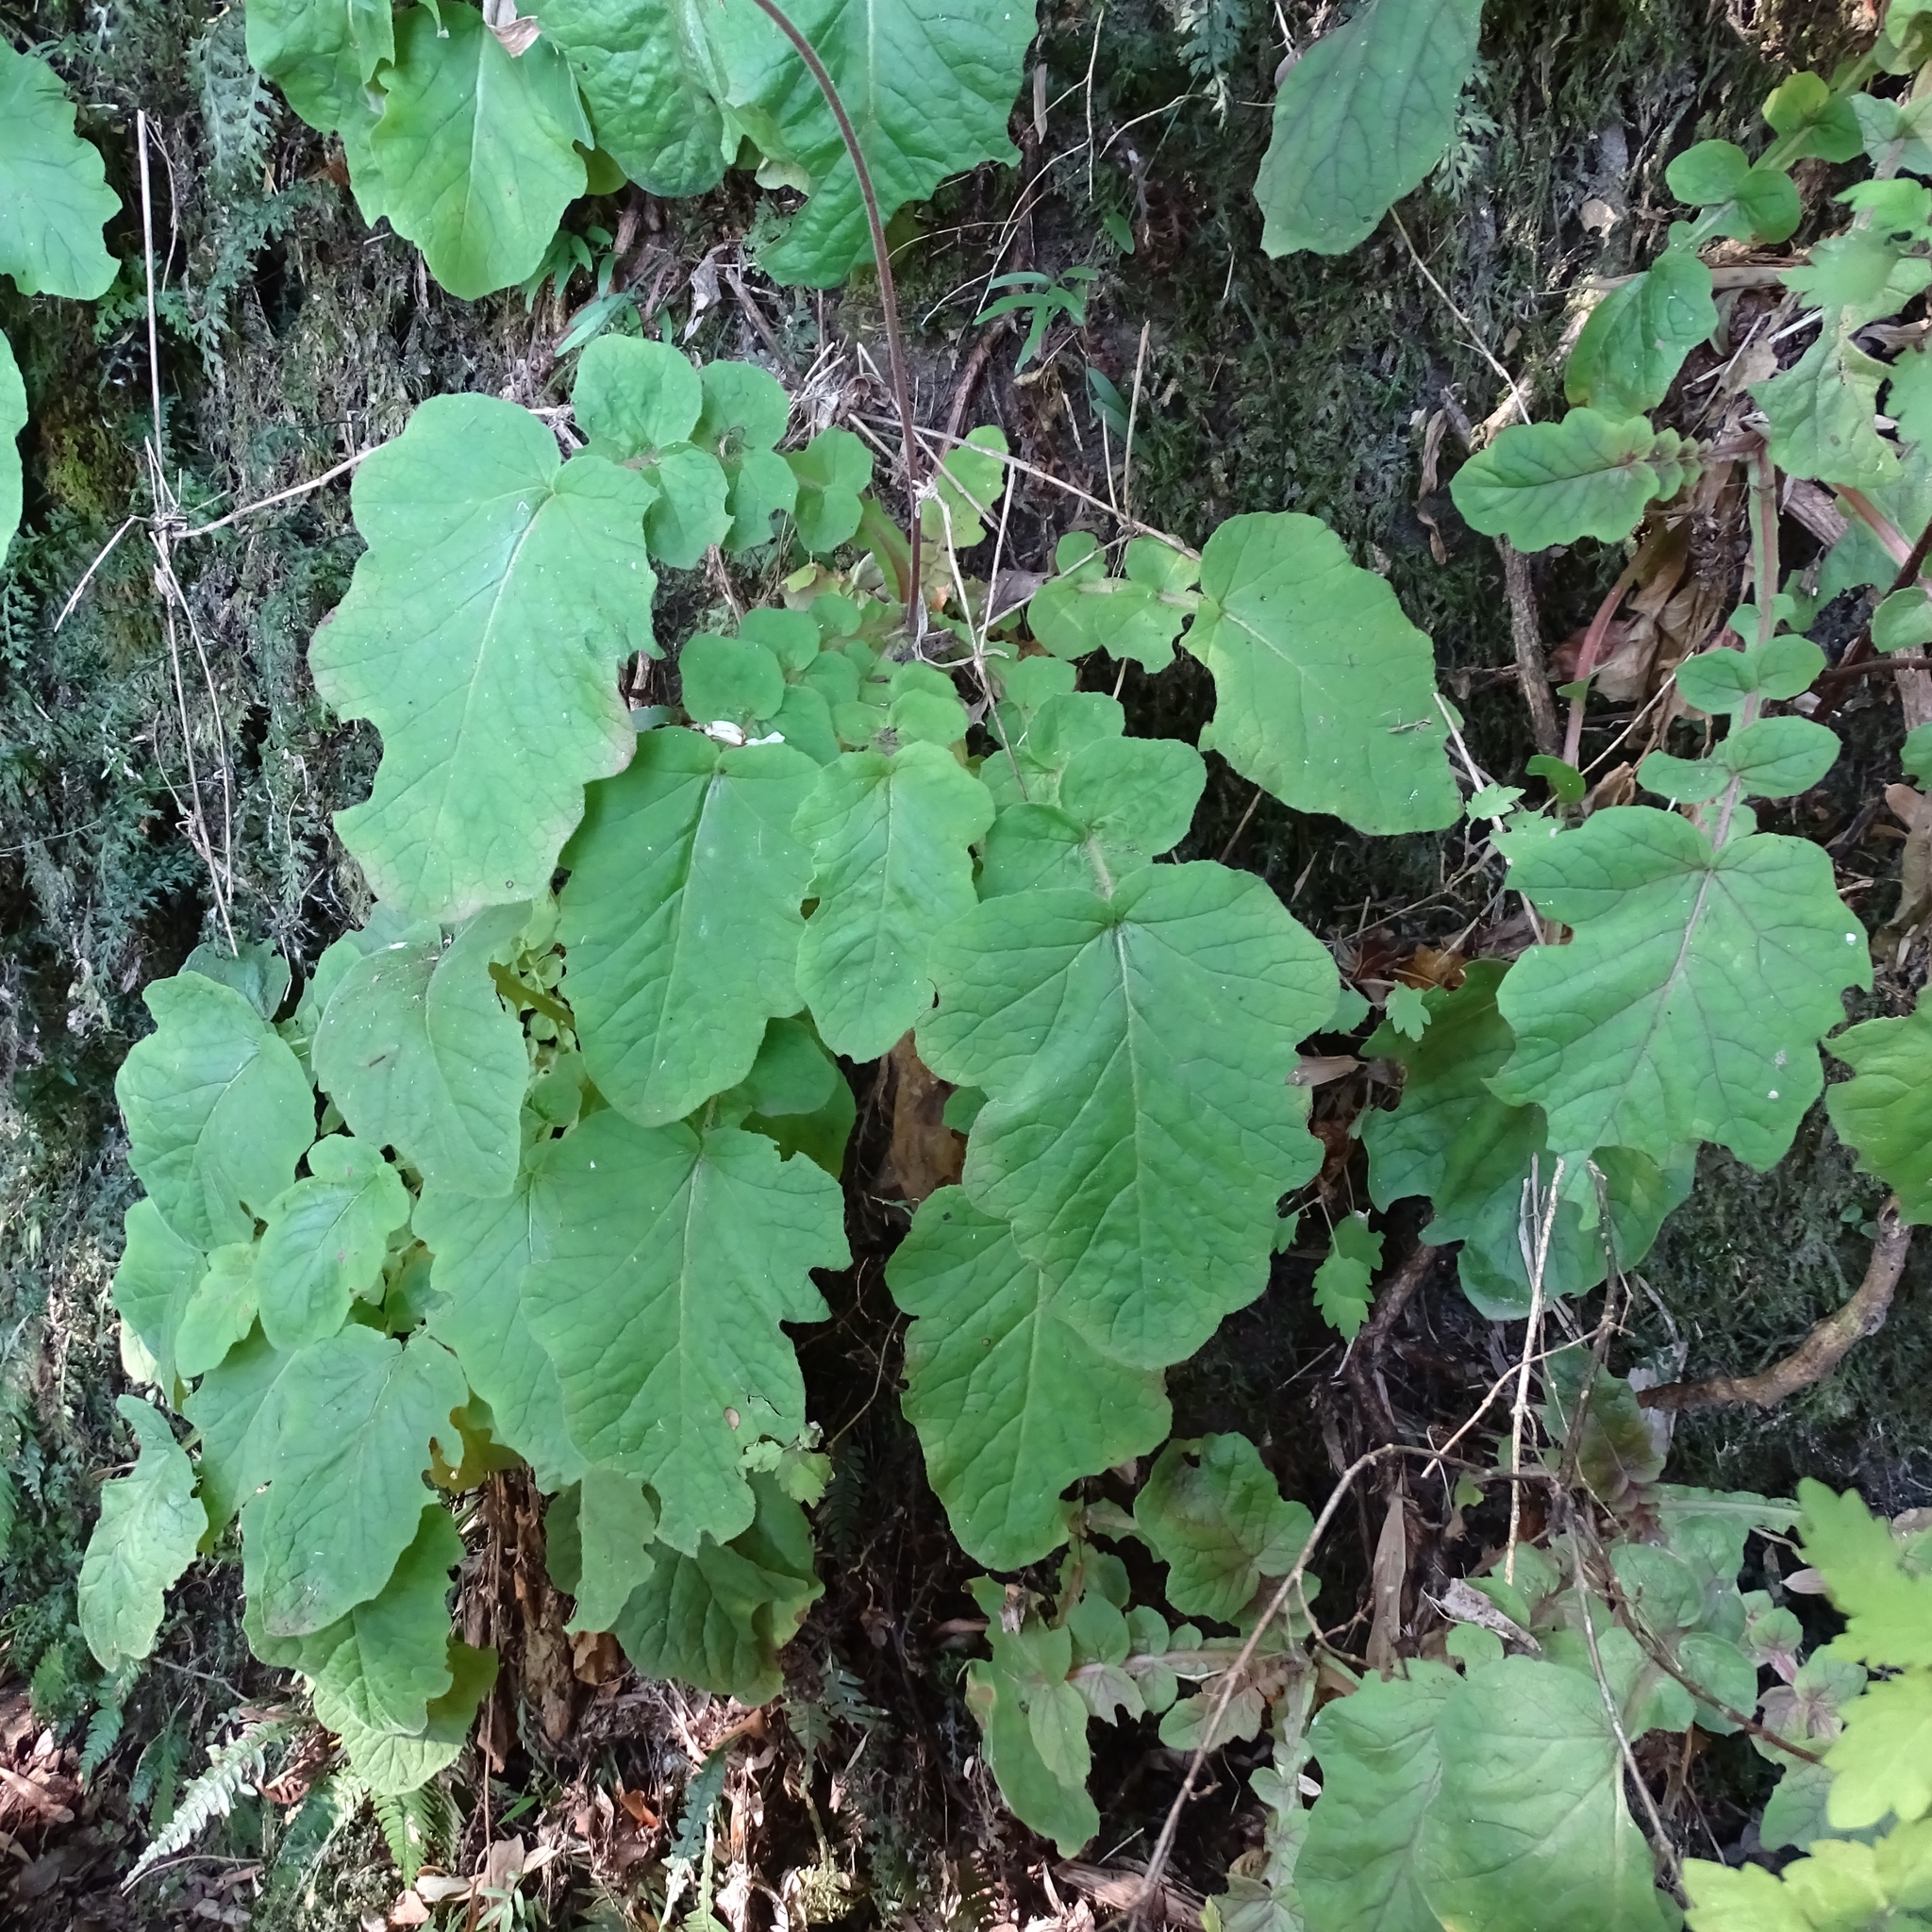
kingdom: Plantae
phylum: Tracheophyta
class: Magnoliopsida
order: Geraniales
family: Francoaceae
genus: Francoa
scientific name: Francoa appendiculata
